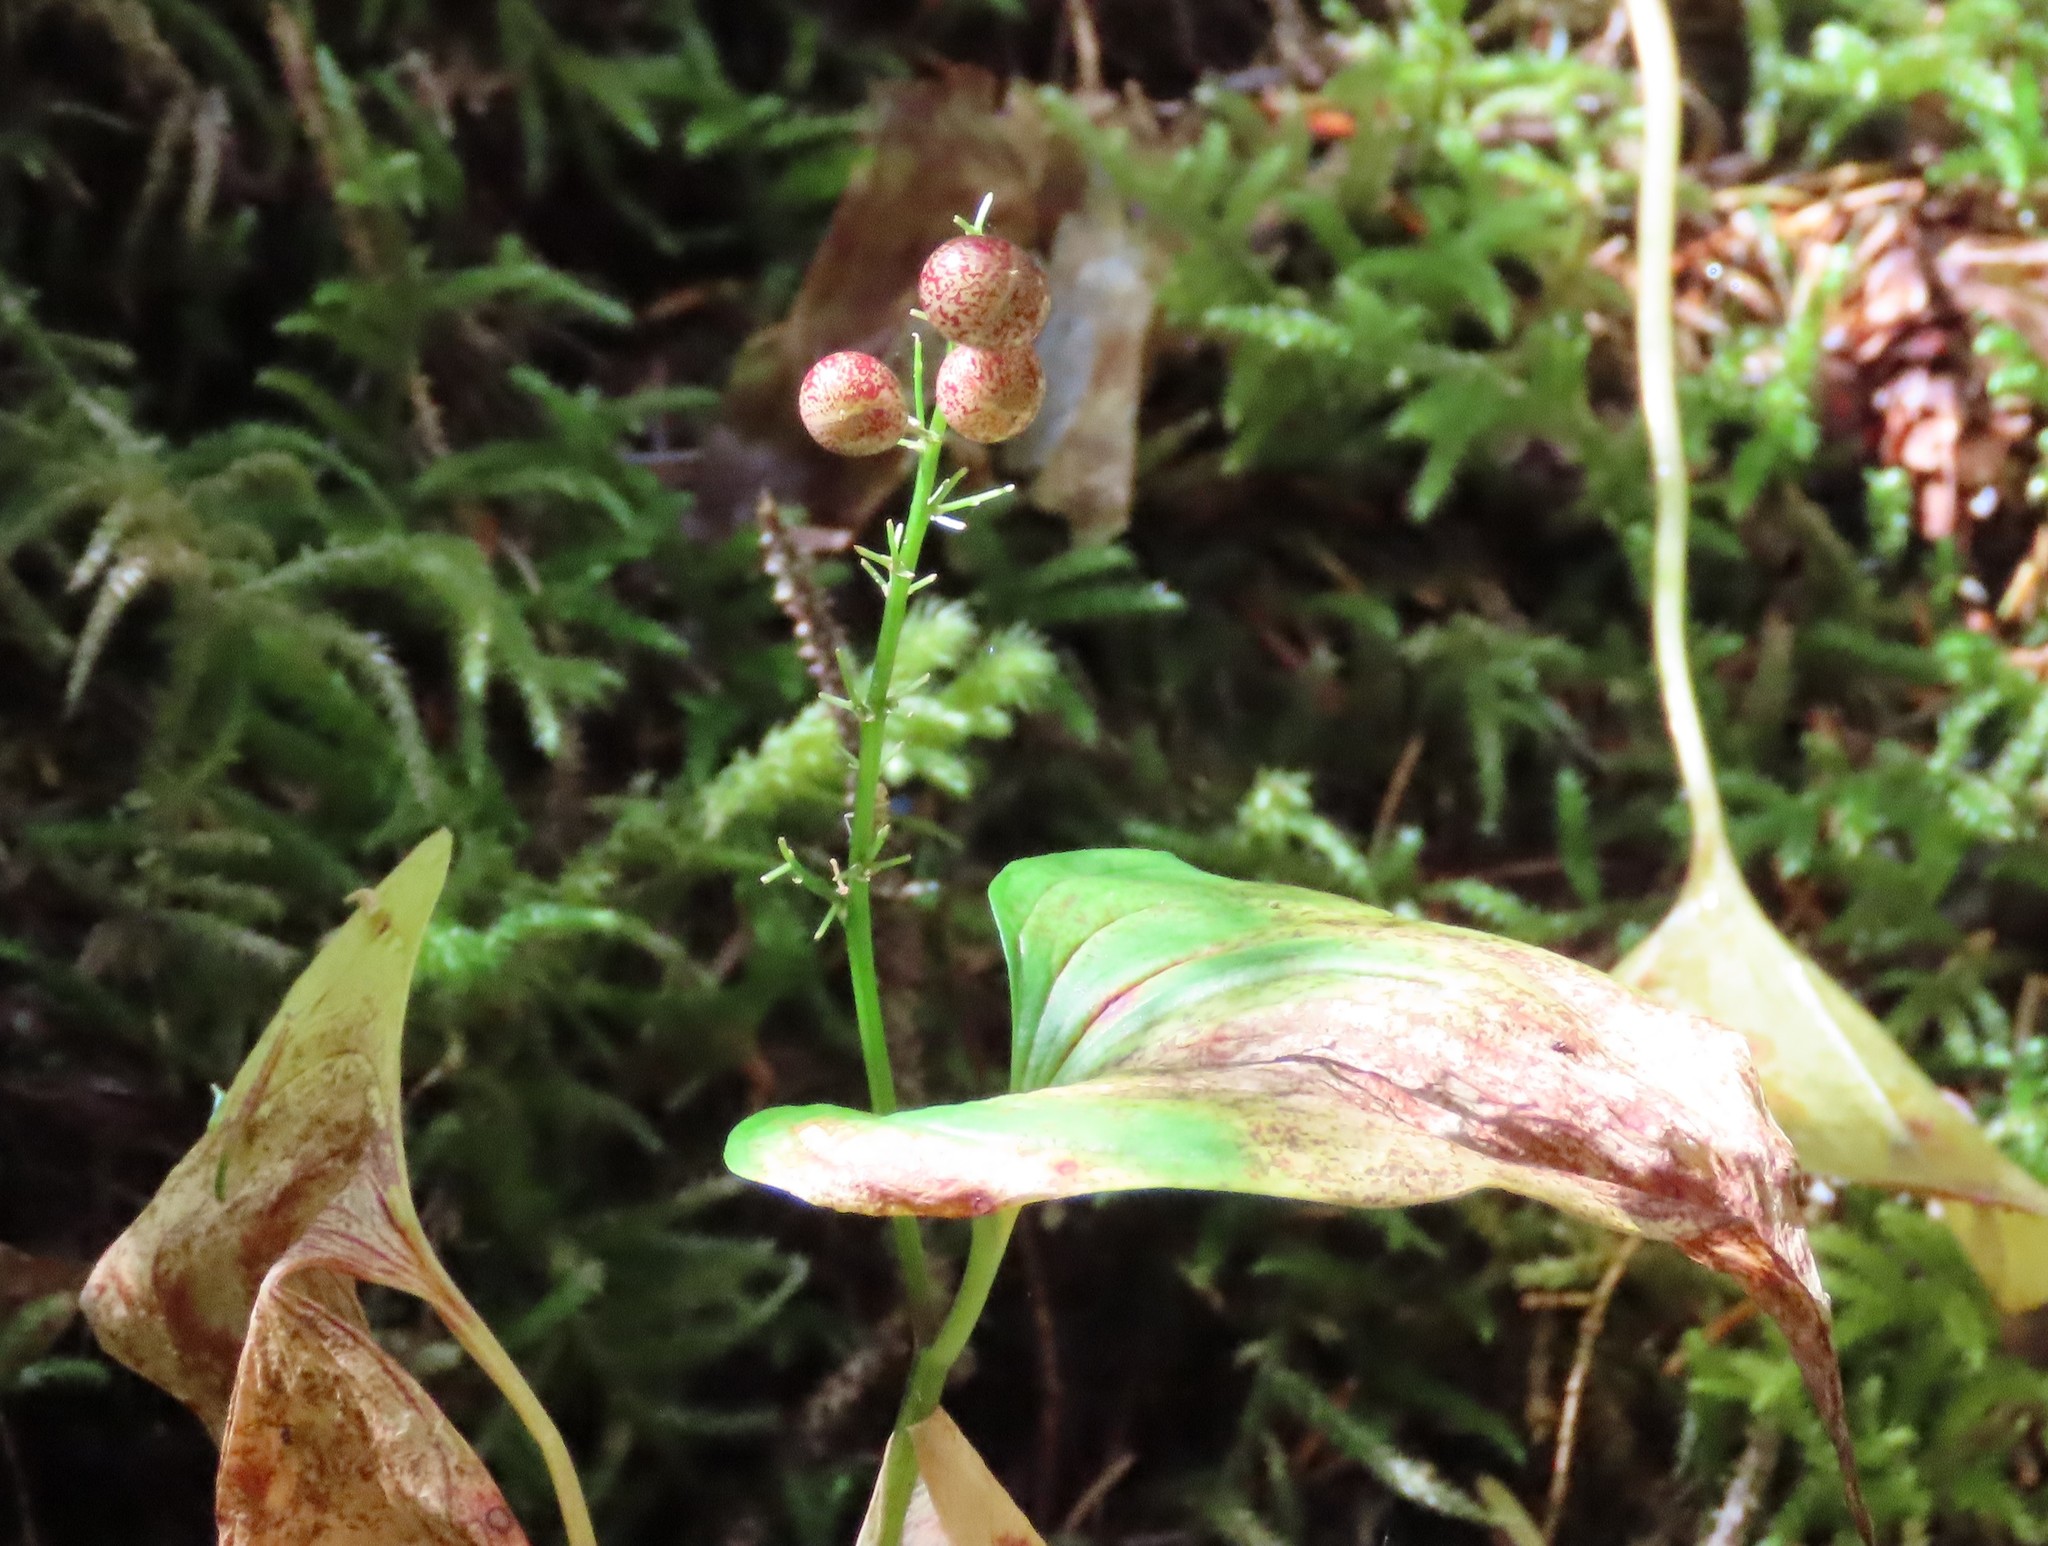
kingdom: Plantae
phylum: Tracheophyta
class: Liliopsida
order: Asparagales
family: Asparagaceae
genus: Maianthemum
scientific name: Maianthemum dilatatum
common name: False lily-of-the-valley
